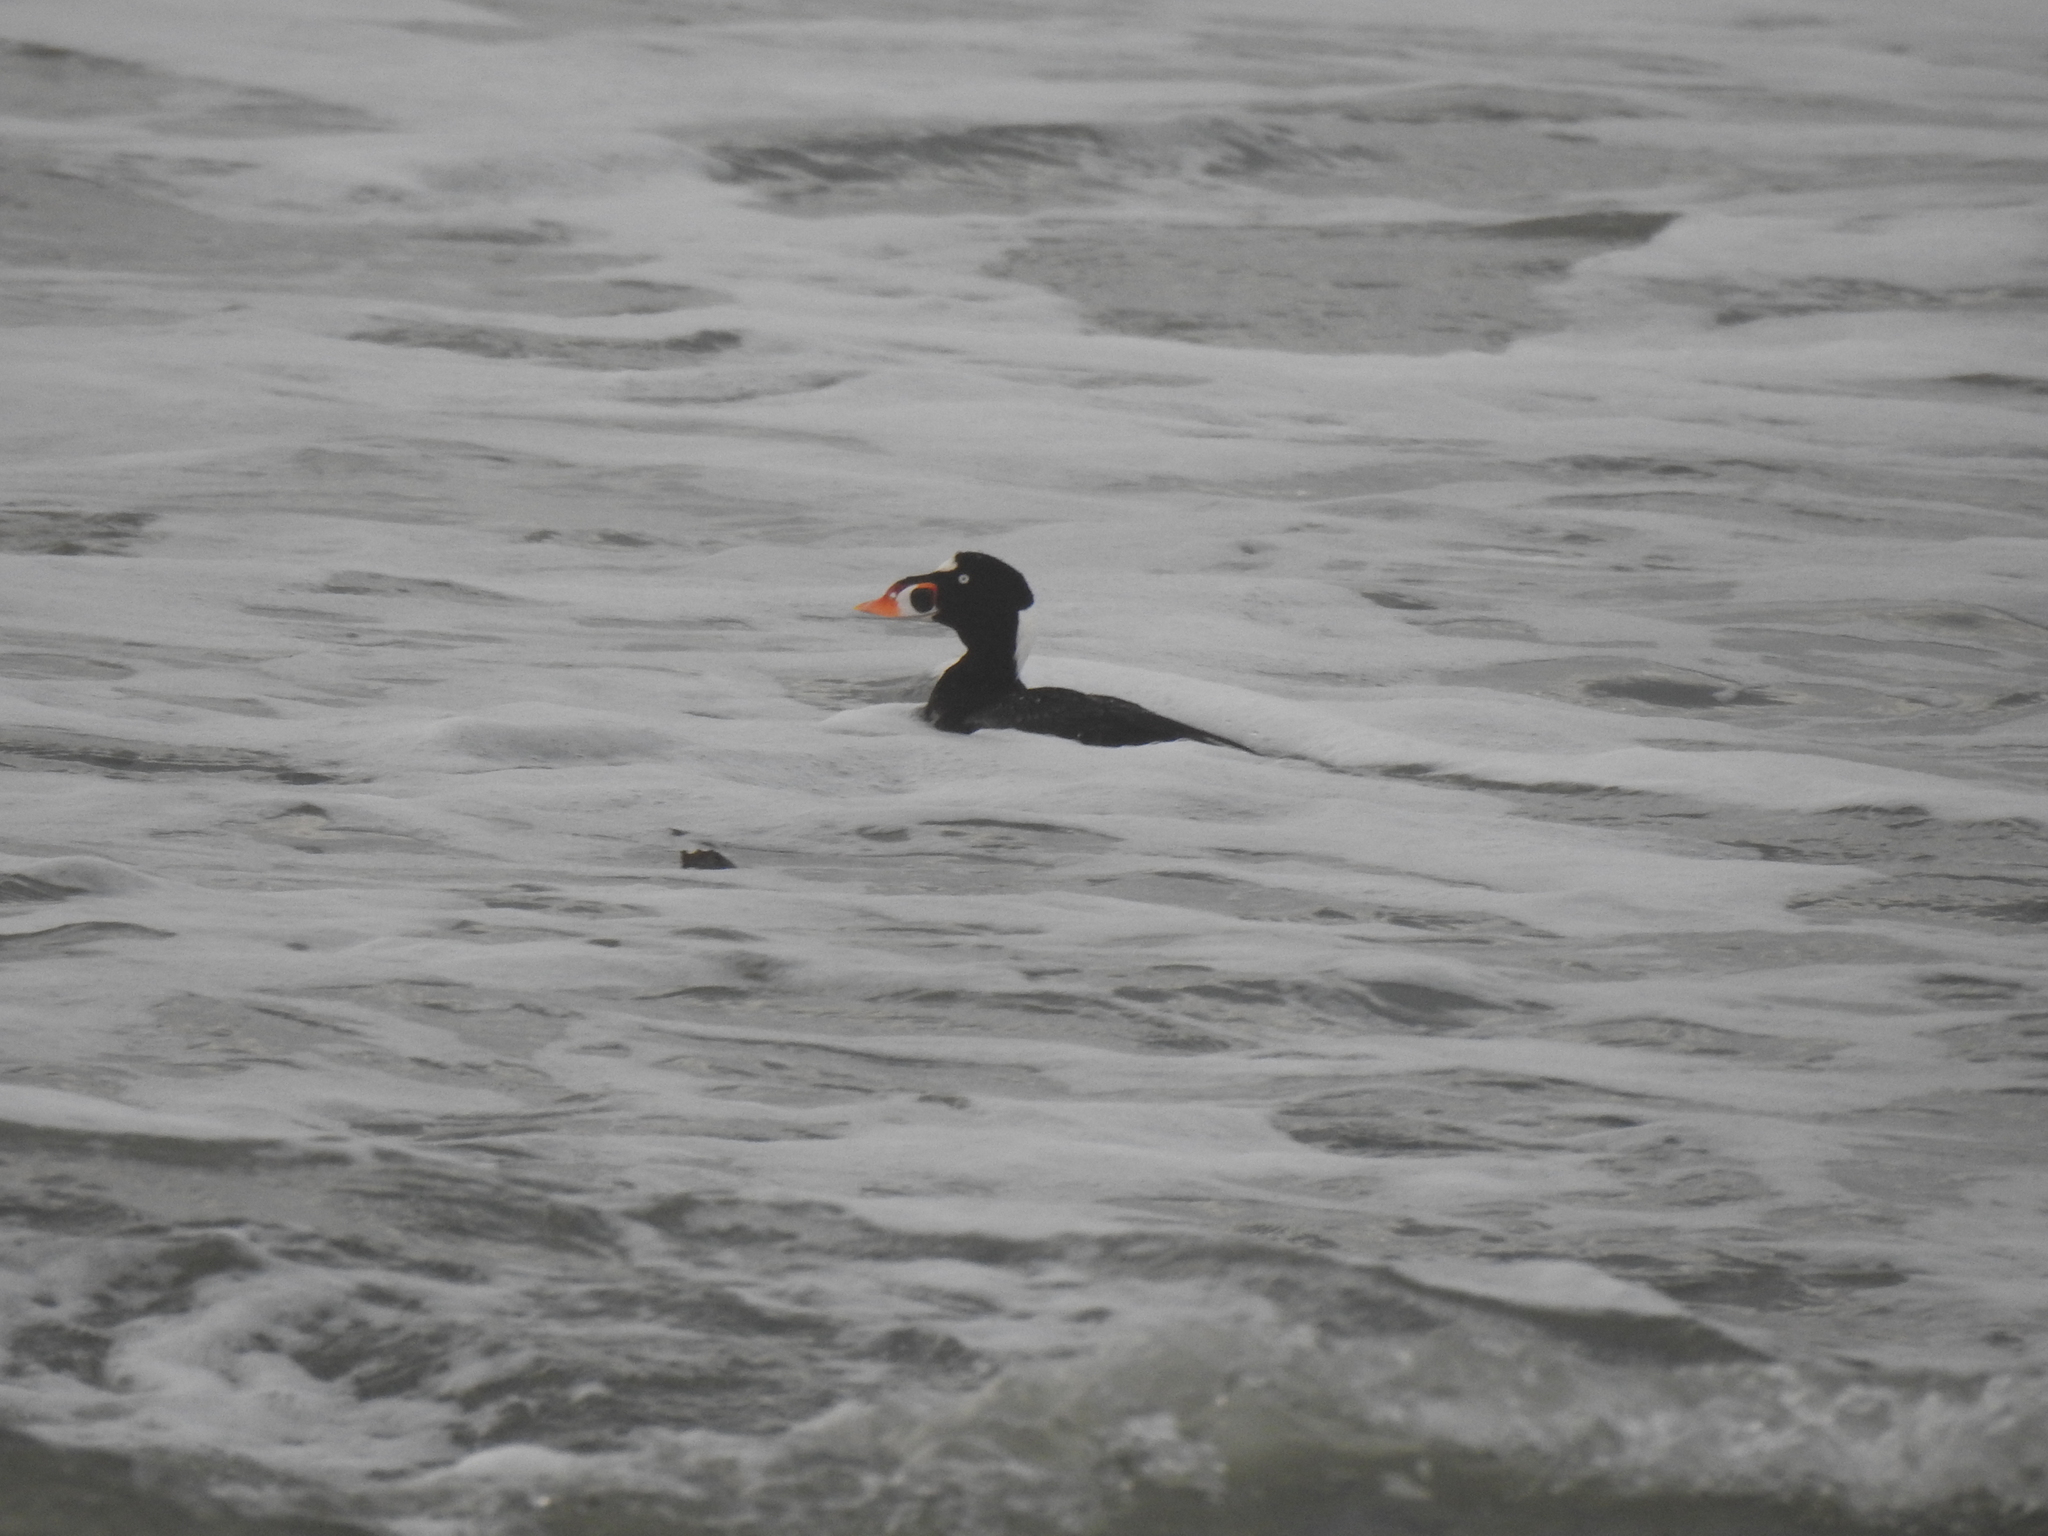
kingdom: Animalia
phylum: Chordata
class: Aves
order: Anseriformes
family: Anatidae
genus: Melanitta
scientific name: Melanitta perspicillata
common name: Surf scoter
